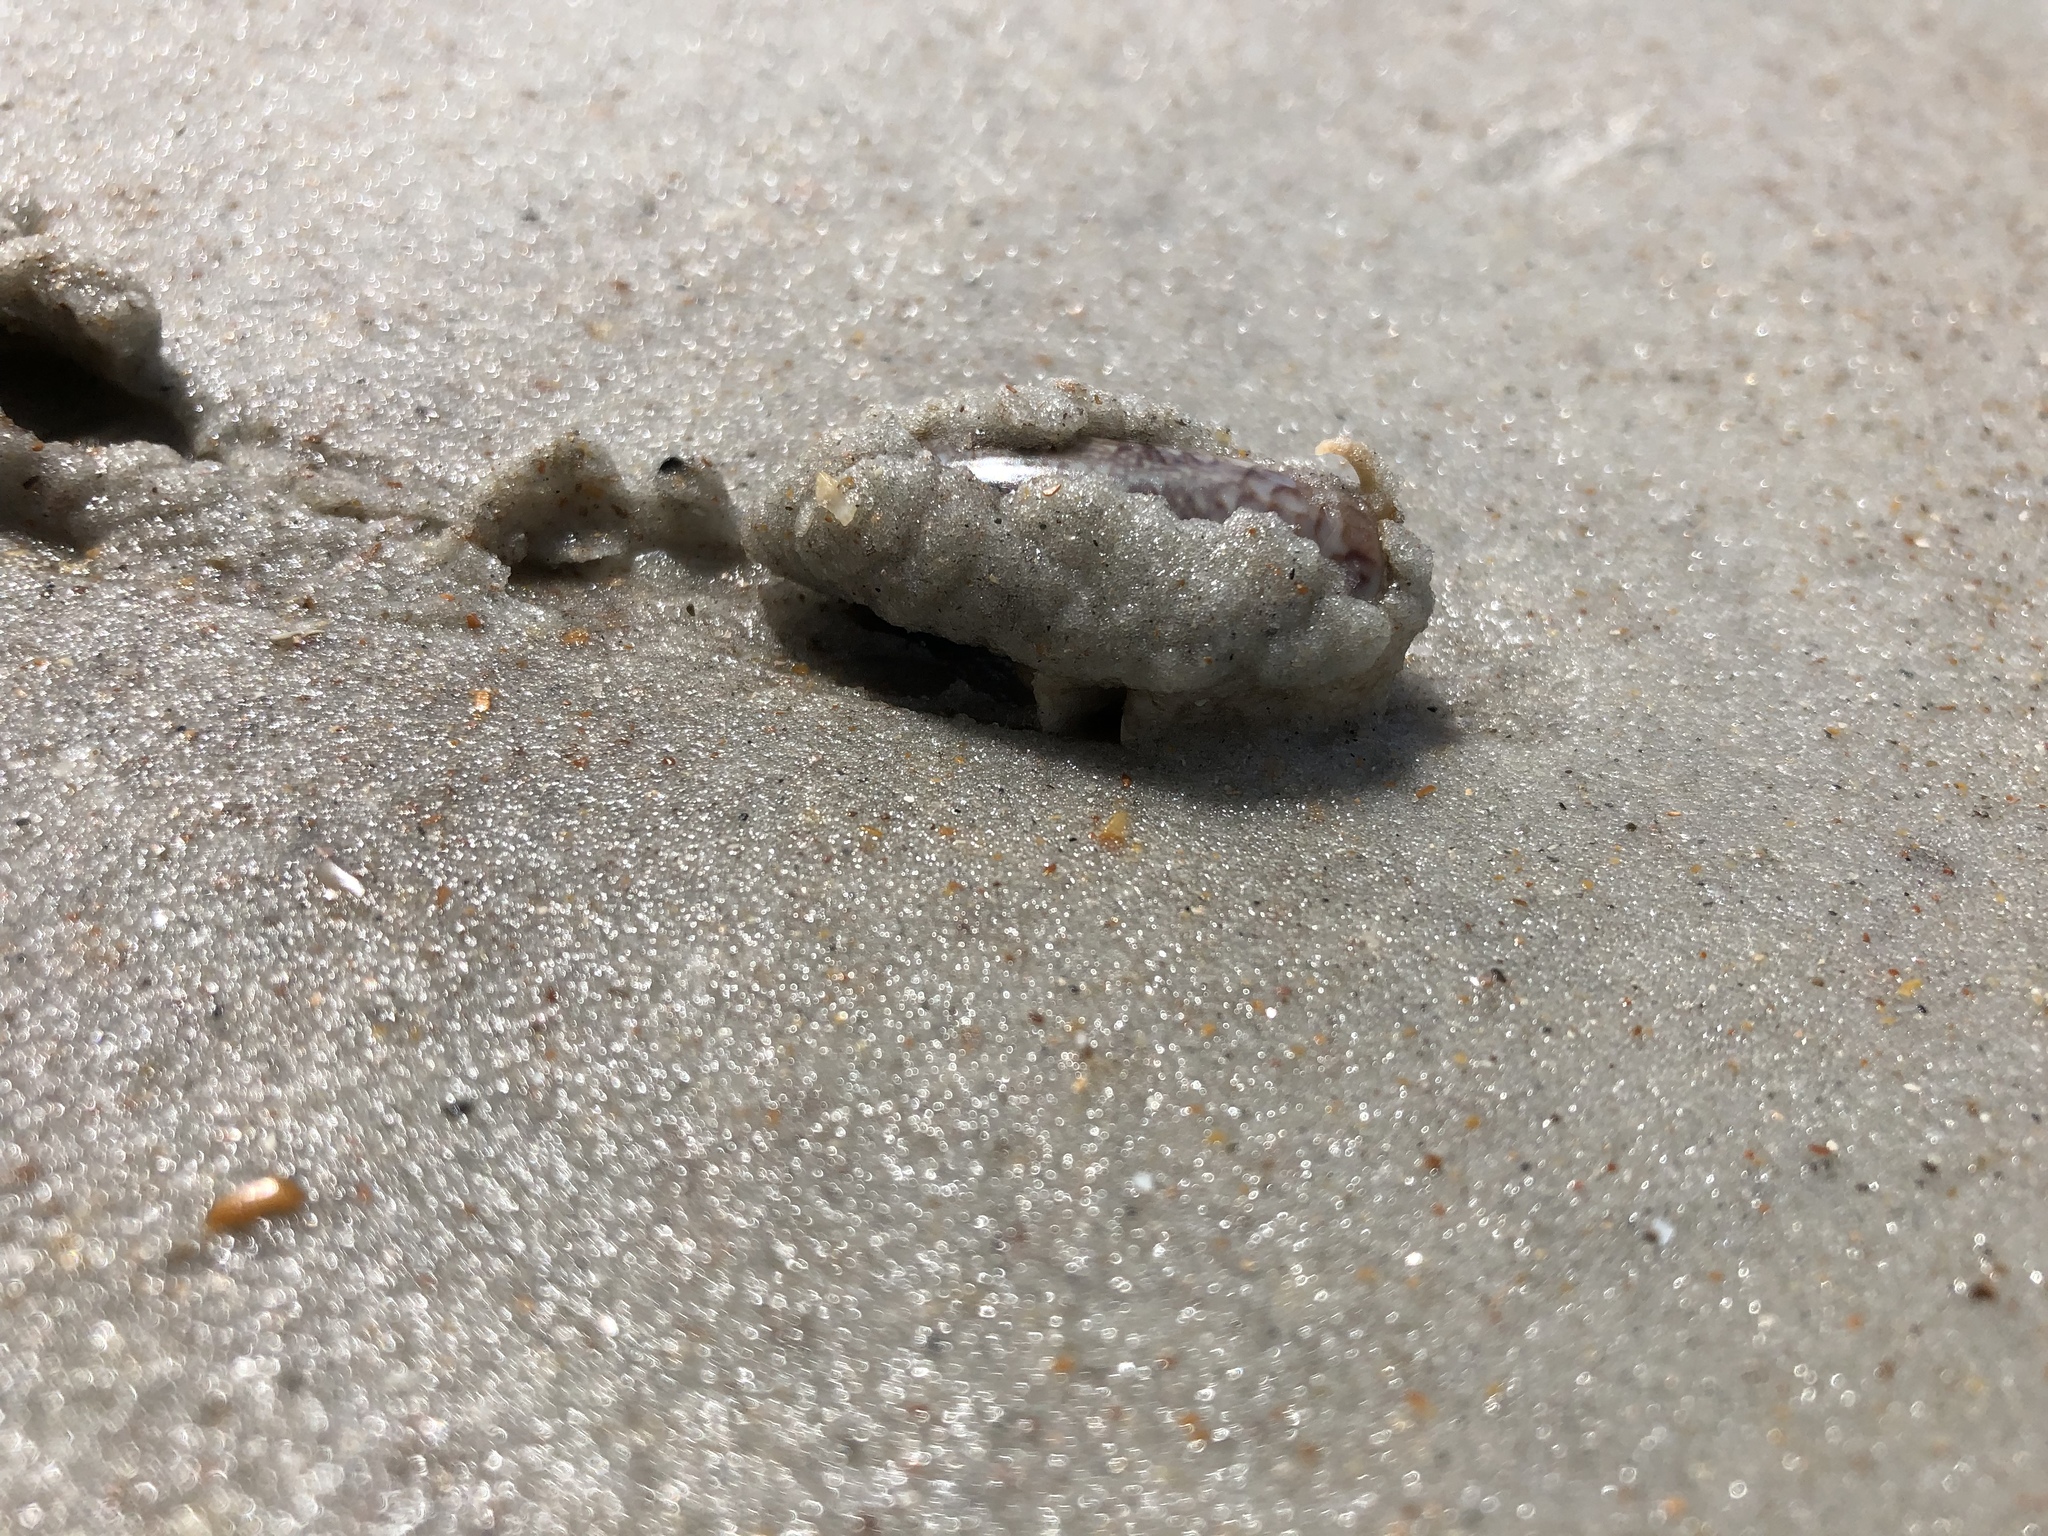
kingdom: Animalia
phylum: Mollusca
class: Gastropoda
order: Neogastropoda
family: Olividae
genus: Oliva
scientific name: Oliva sayana
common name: Lettered olive
